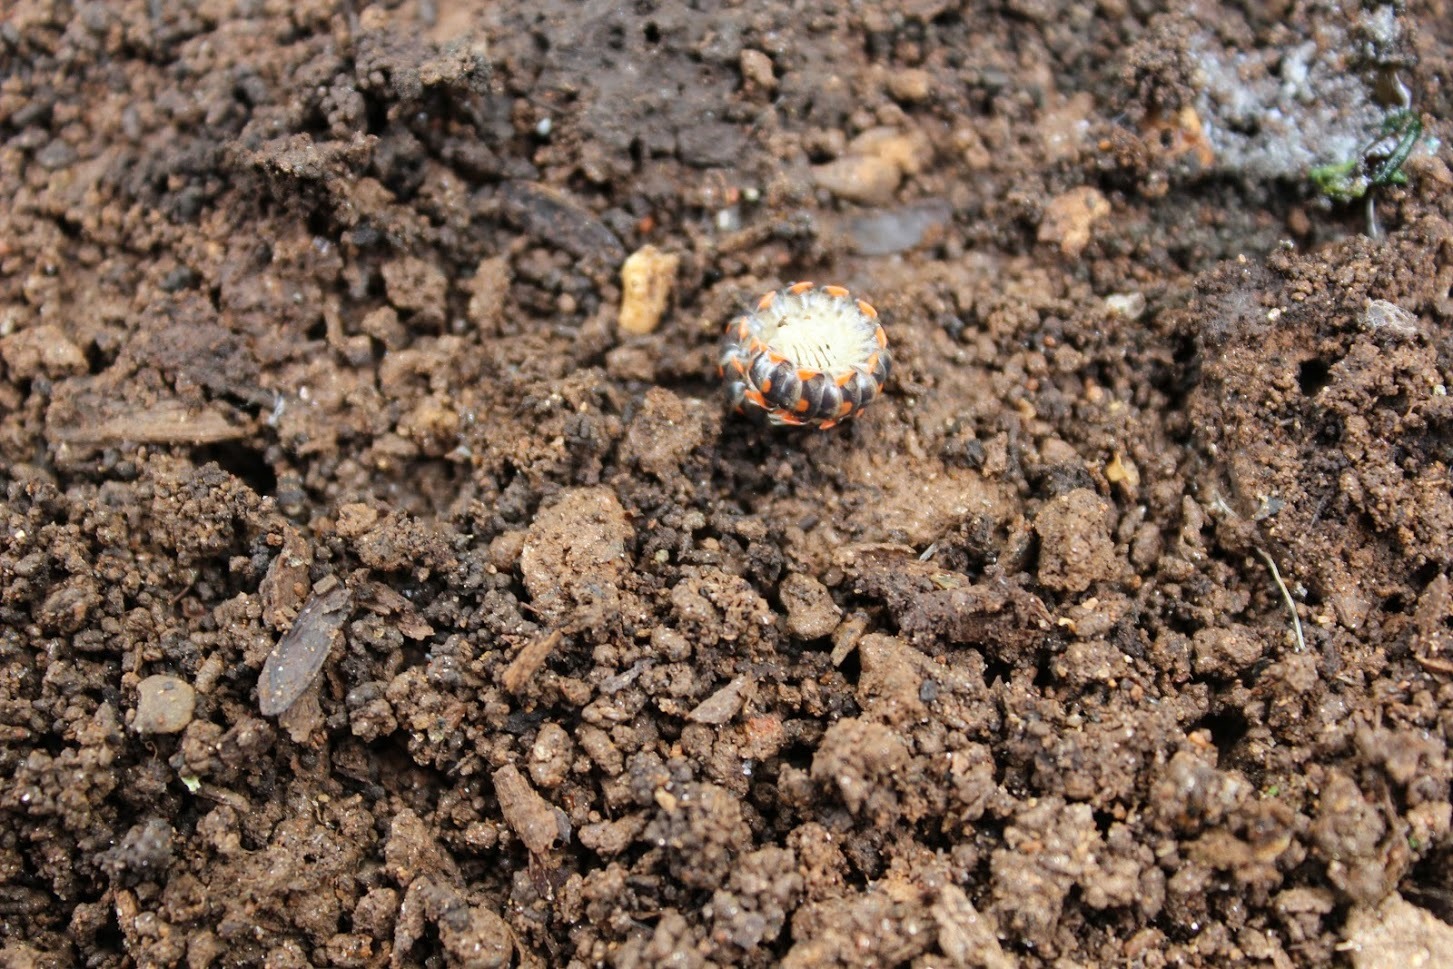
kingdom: Animalia
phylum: Arthropoda
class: Diplopoda
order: Polydesmida
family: Xystodesmidae
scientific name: Xystodesmidae
